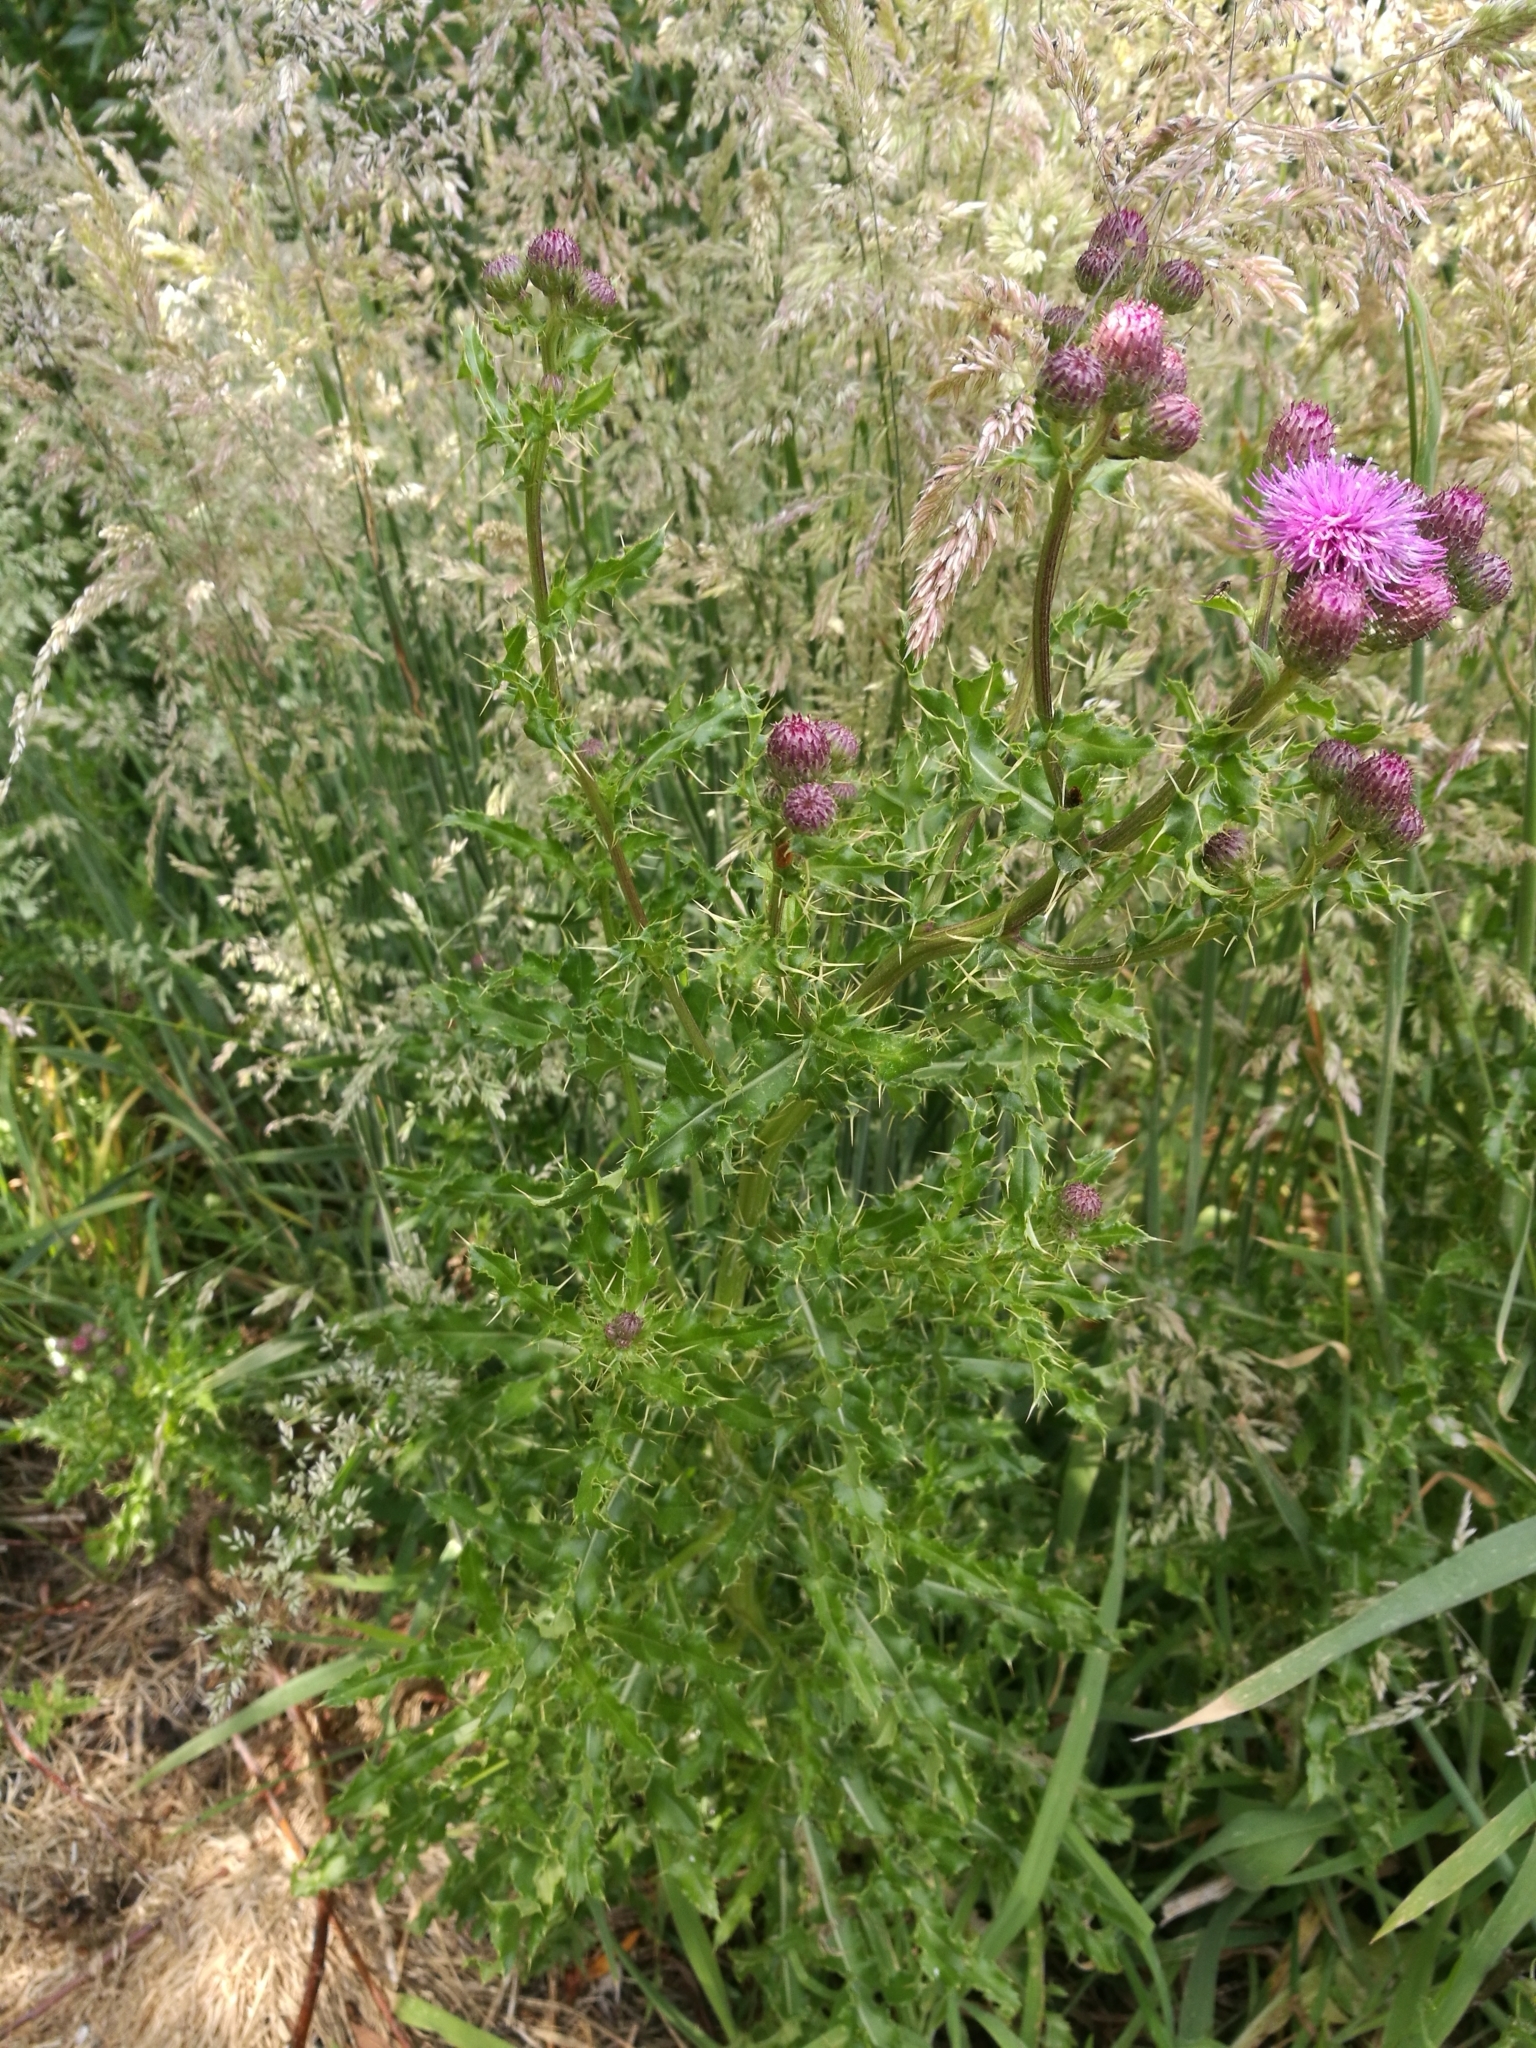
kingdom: Plantae
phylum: Tracheophyta
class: Magnoliopsida
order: Asterales
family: Asteraceae
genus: Cirsium
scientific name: Cirsium arvense
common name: Creeping thistle
